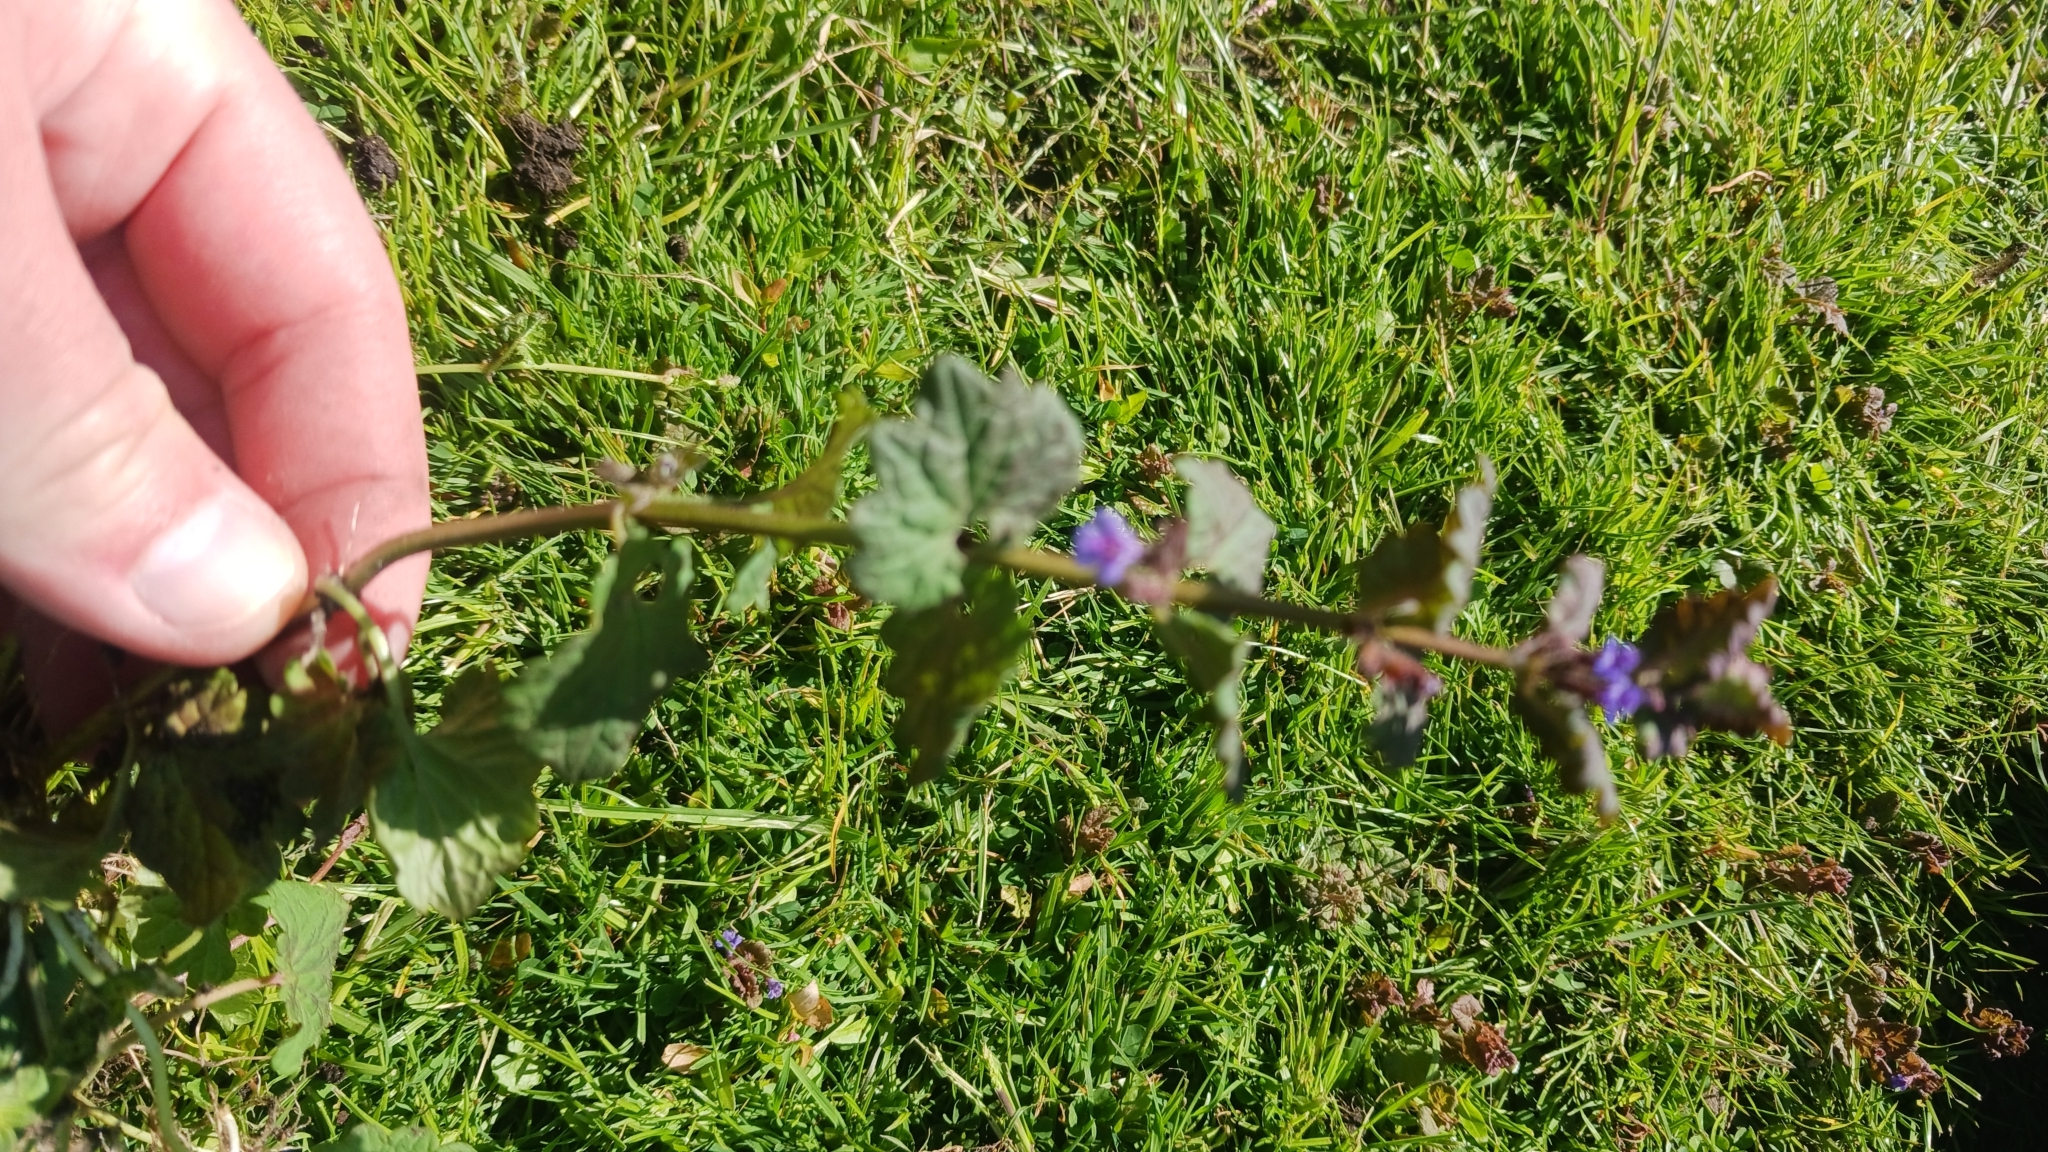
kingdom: Plantae
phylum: Tracheophyta
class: Magnoliopsida
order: Lamiales
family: Lamiaceae
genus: Glechoma
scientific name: Glechoma hederacea
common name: Ground ivy
